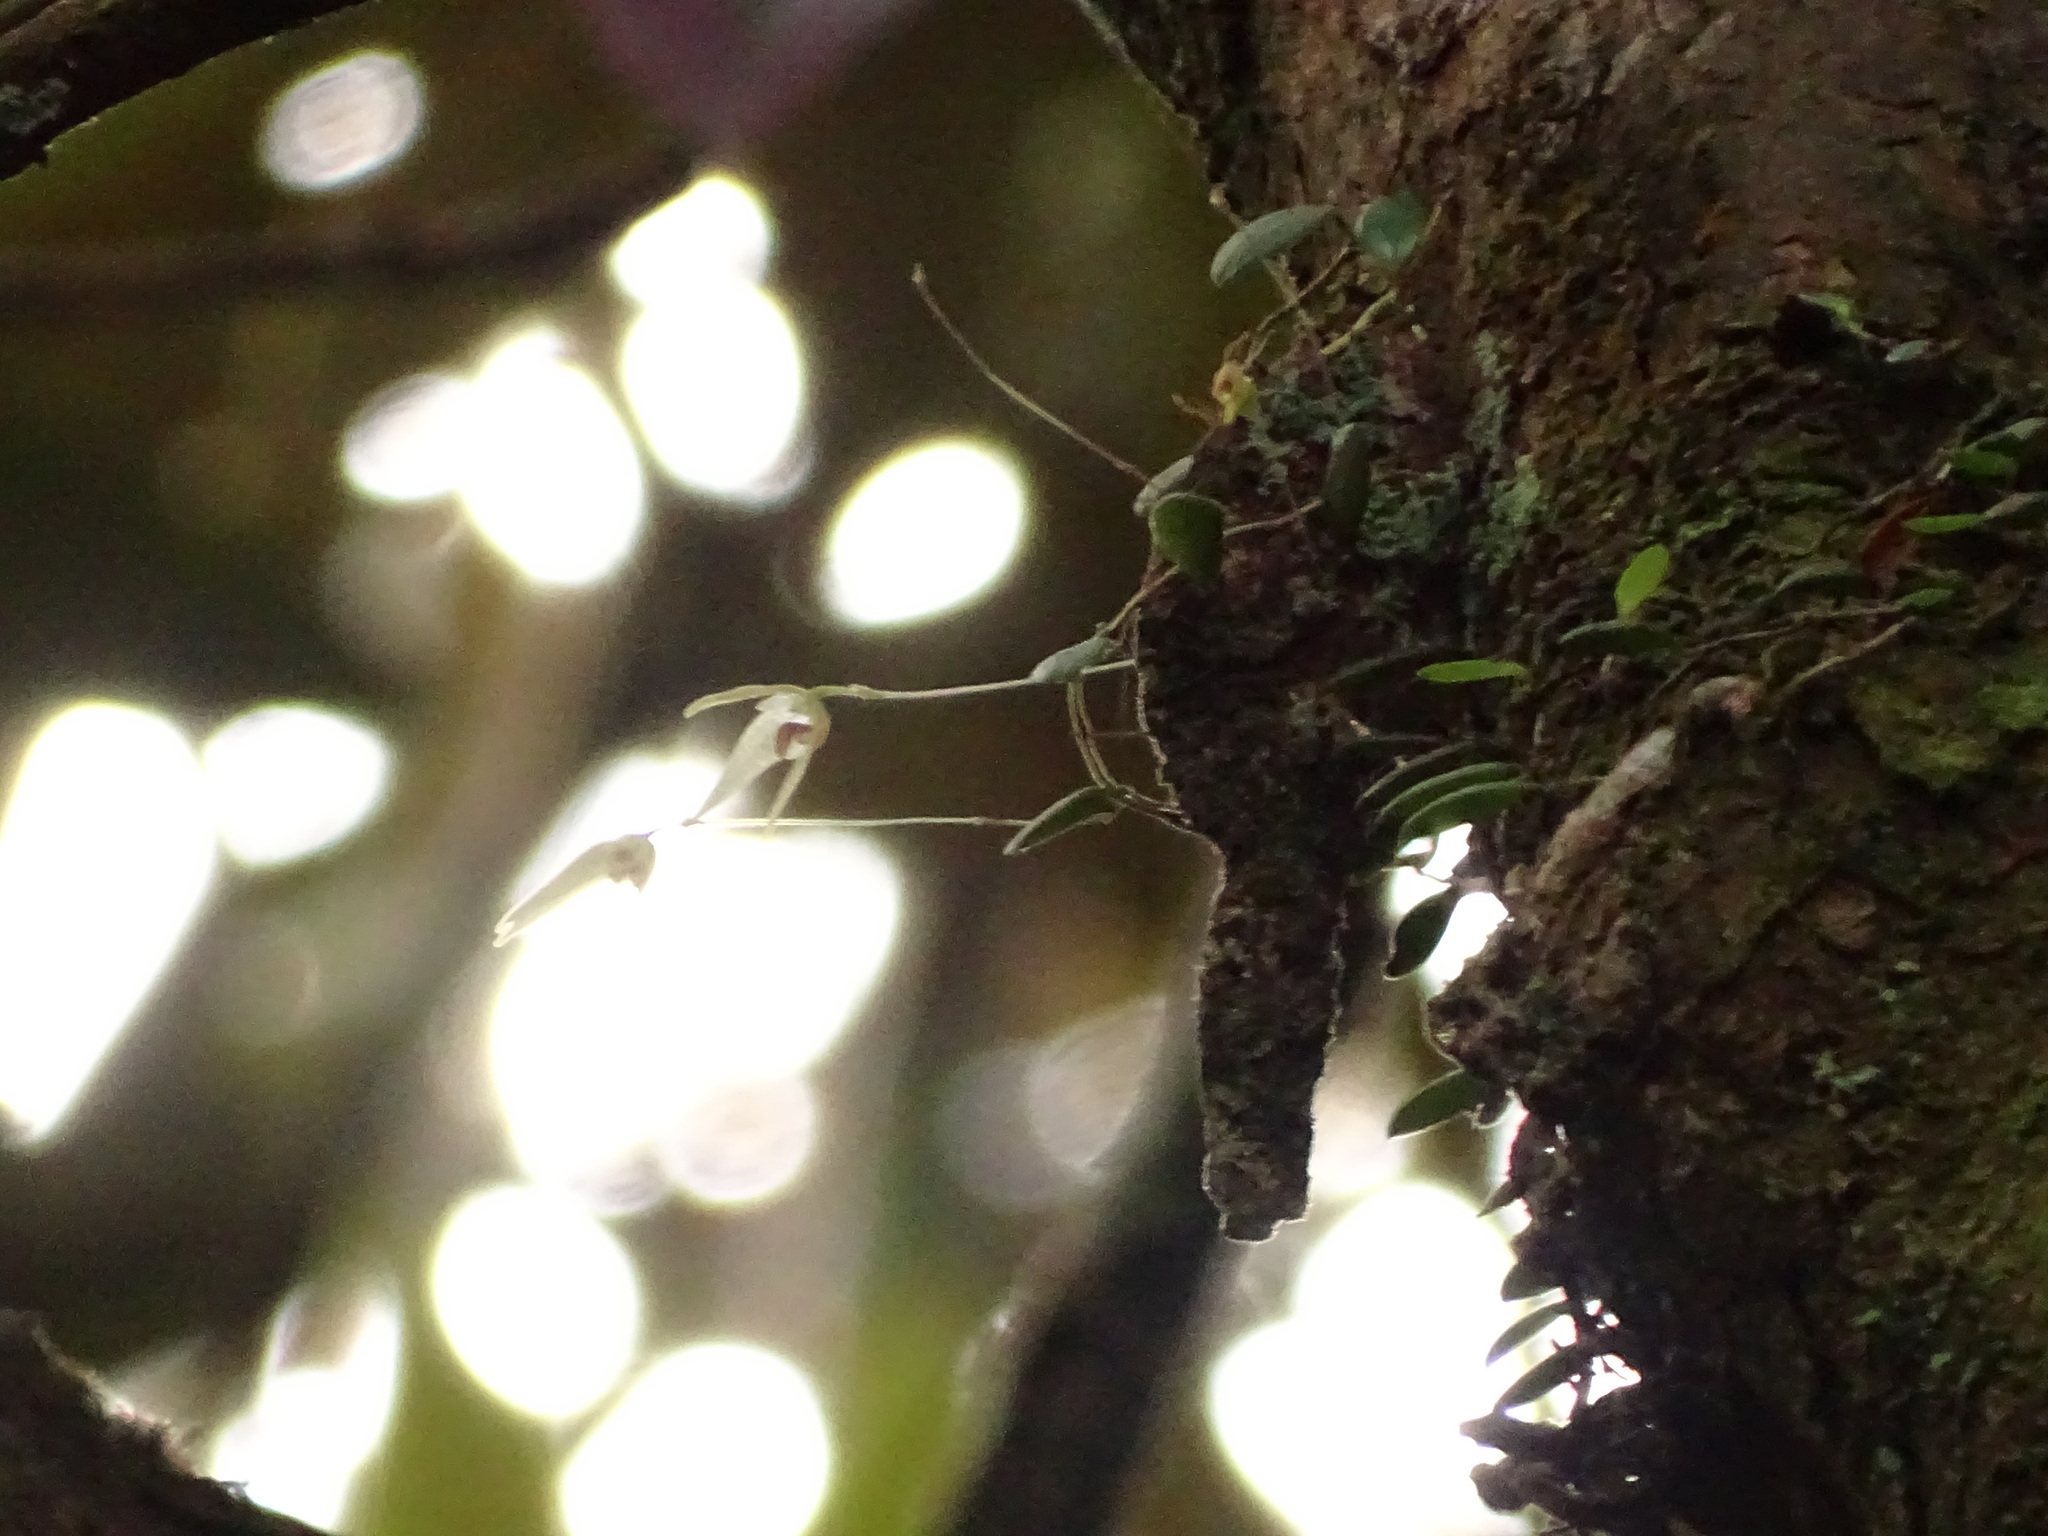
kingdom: Plantae
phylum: Tracheophyta
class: Liliopsida
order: Asparagales
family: Orchidaceae
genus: Bulbophyllum
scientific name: Bulbophyllum drymoglossum
